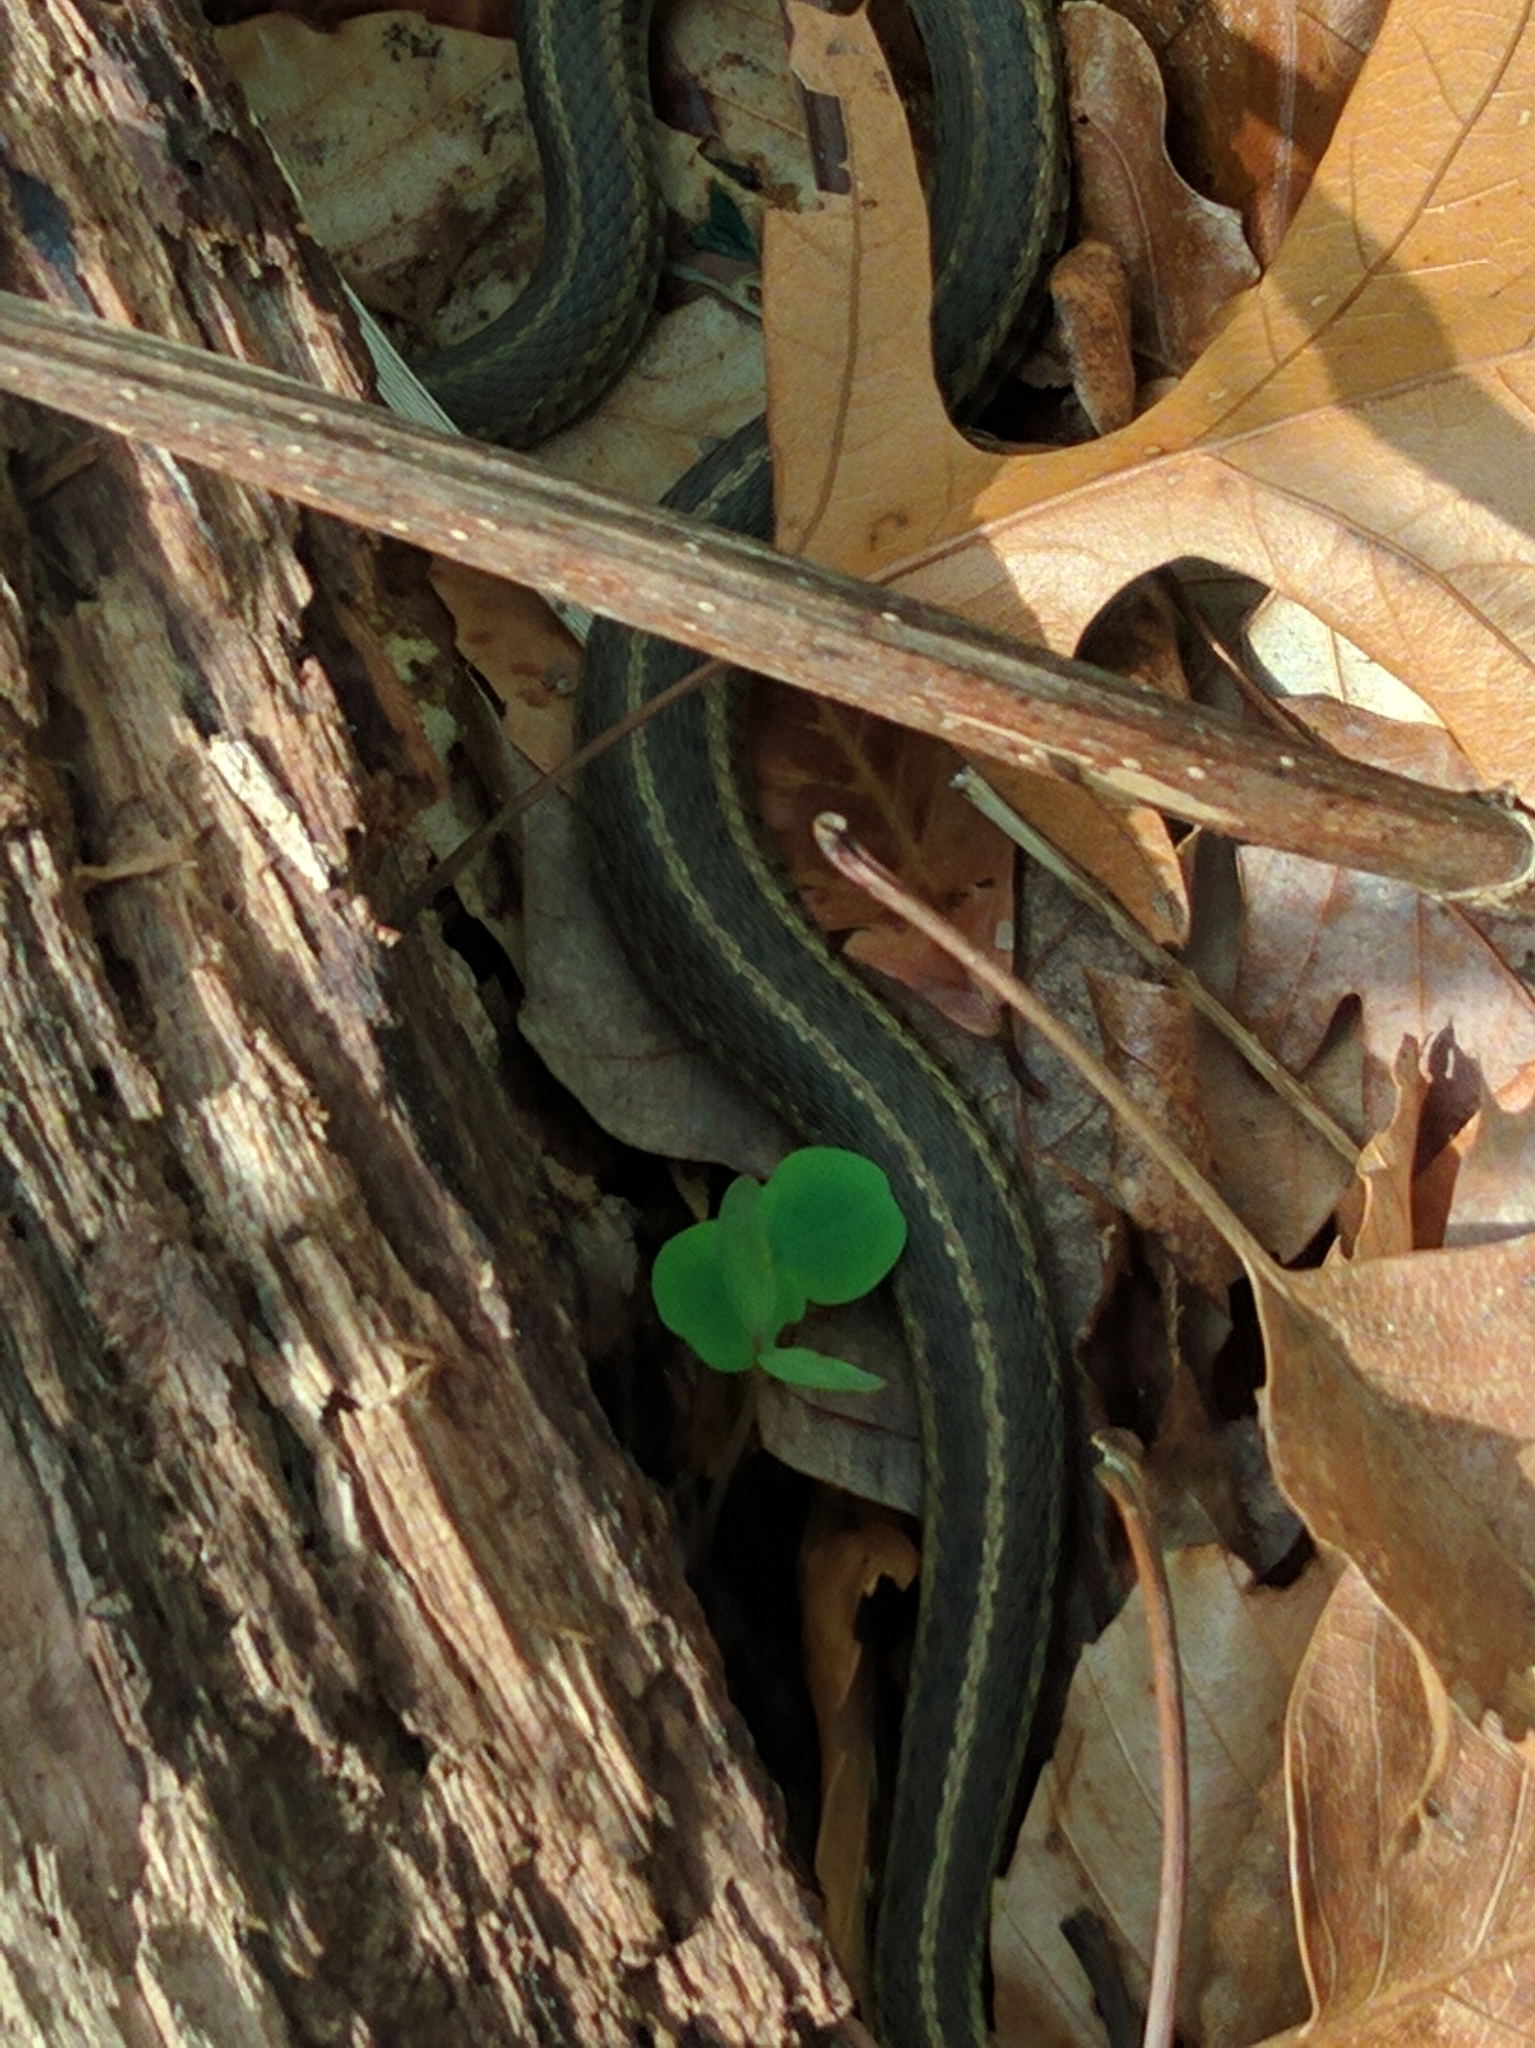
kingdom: Animalia
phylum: Chordata
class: Squamata
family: Colubridae
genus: Thamnophis
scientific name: Thamnophis sirtalis
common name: Common garter snake
